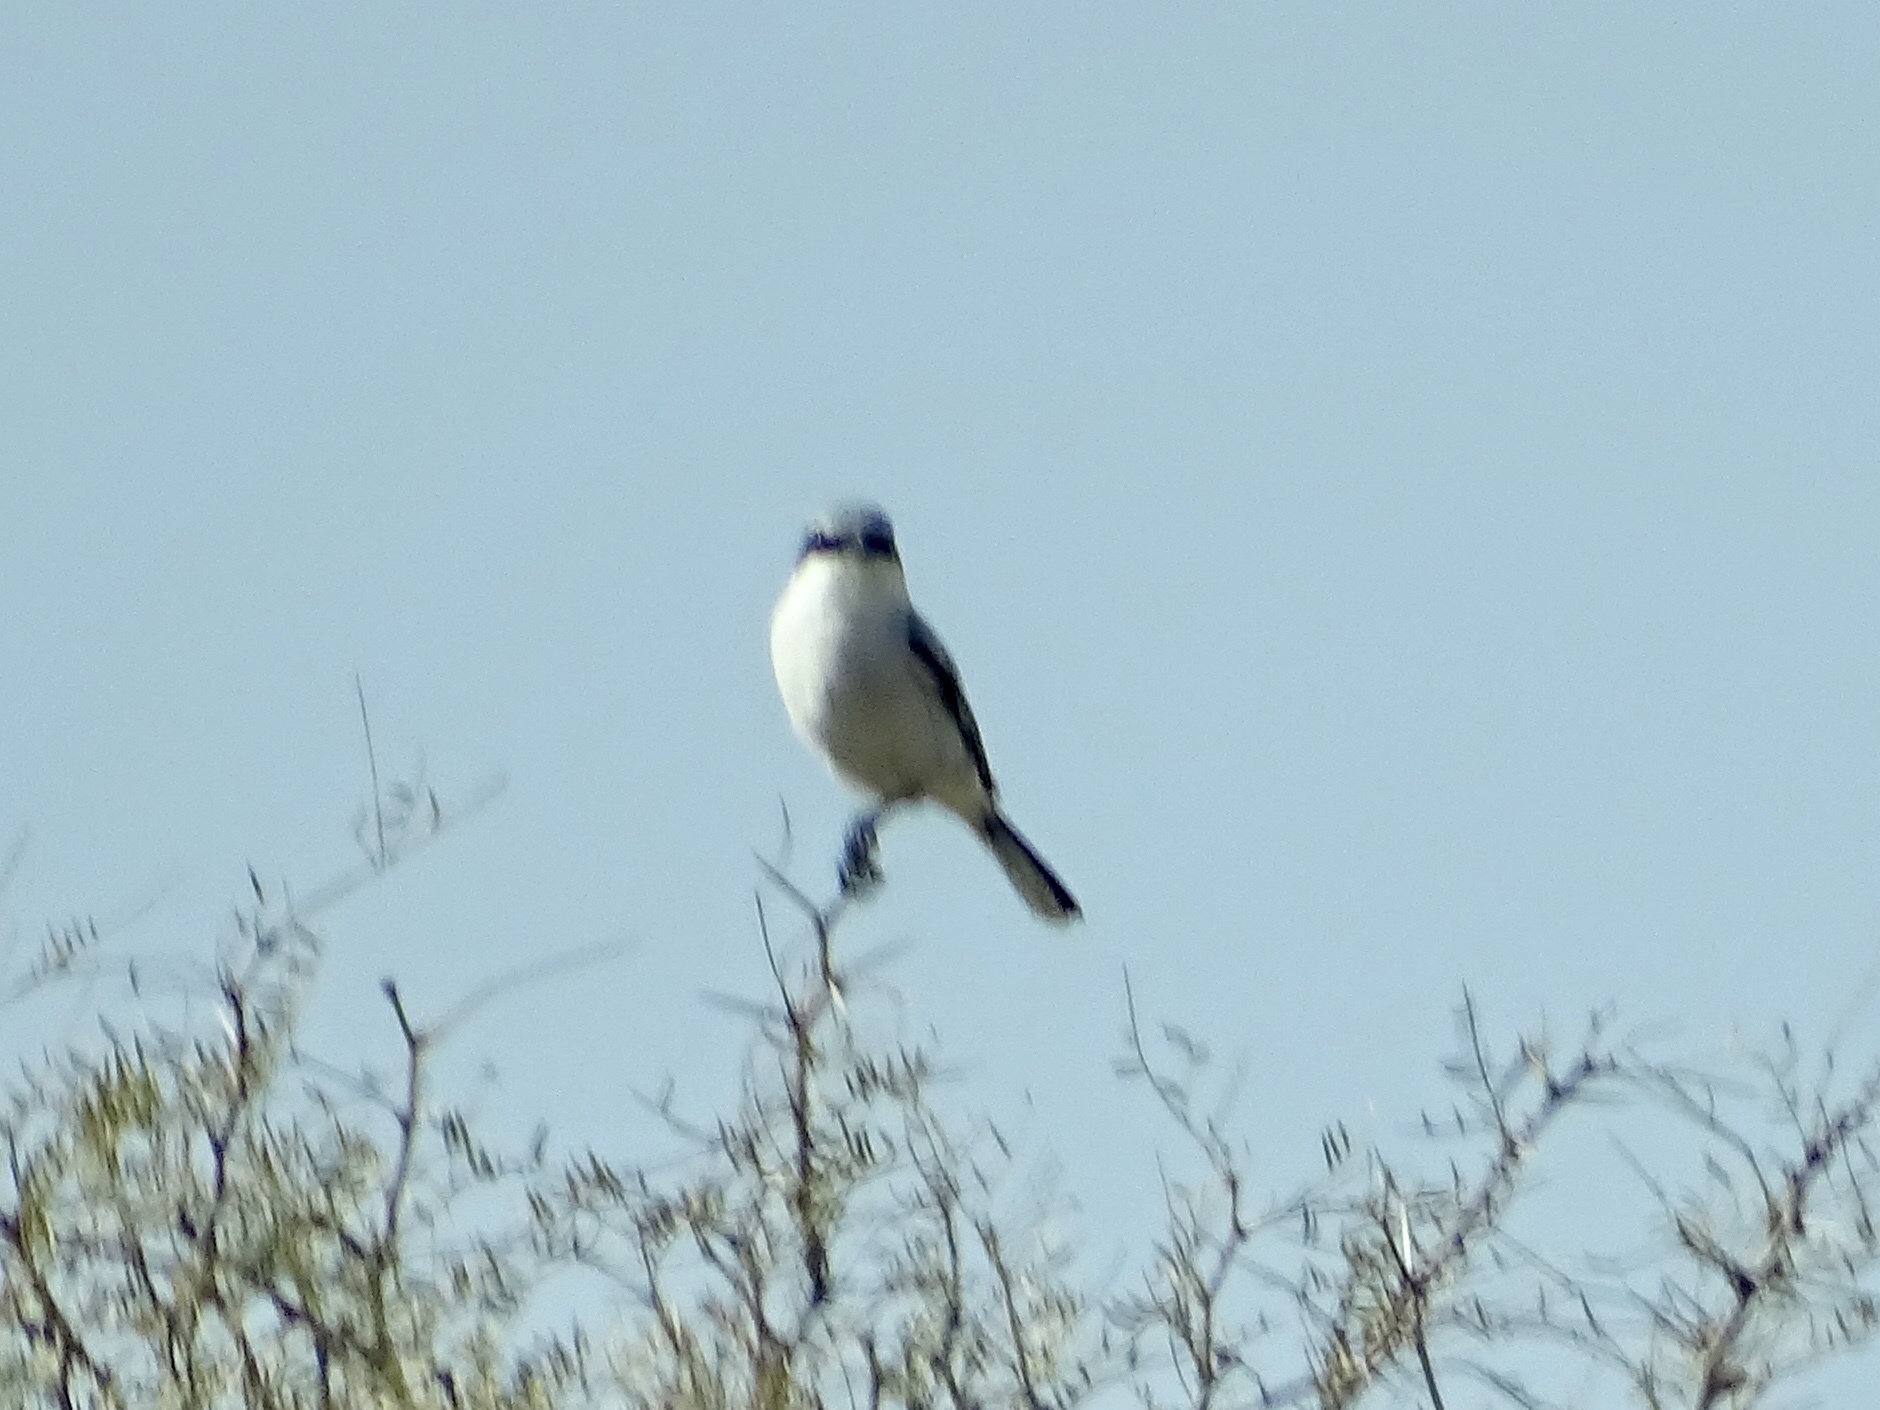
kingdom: Animalia
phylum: Chordata
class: Aves
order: Passeriformes
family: Laniidae
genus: Lanius
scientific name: Lanius ludovicianus
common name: Loggerhead shrike
